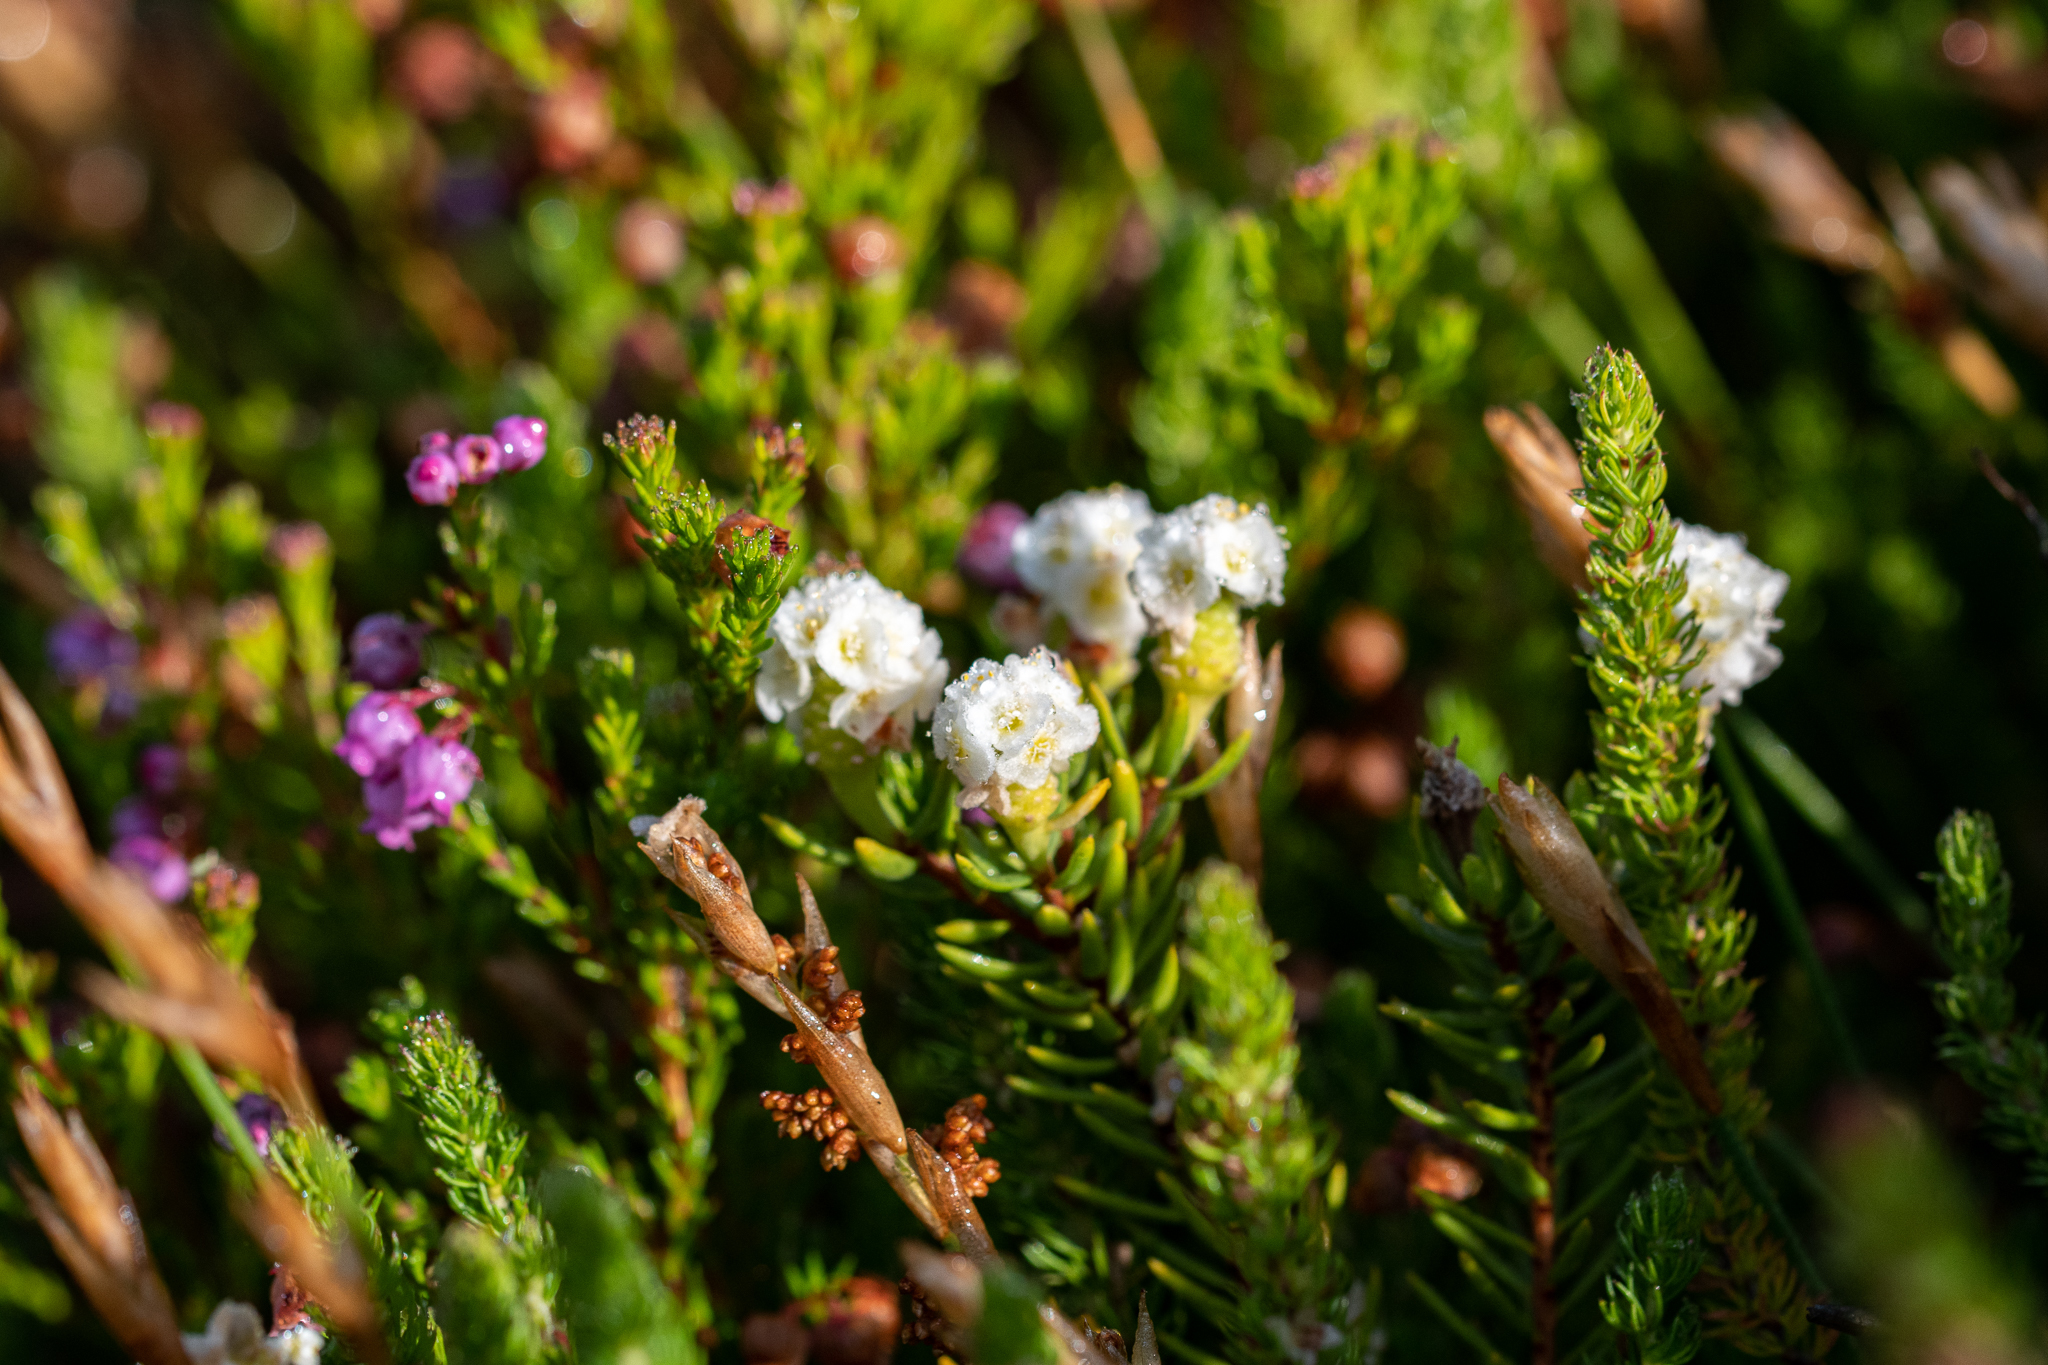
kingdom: Plantae
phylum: Tracheophyta
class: Magnoliopsida
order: Malvales
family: Thymelaeaceae
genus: Lachnaea
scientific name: Lachnaea densiflora
